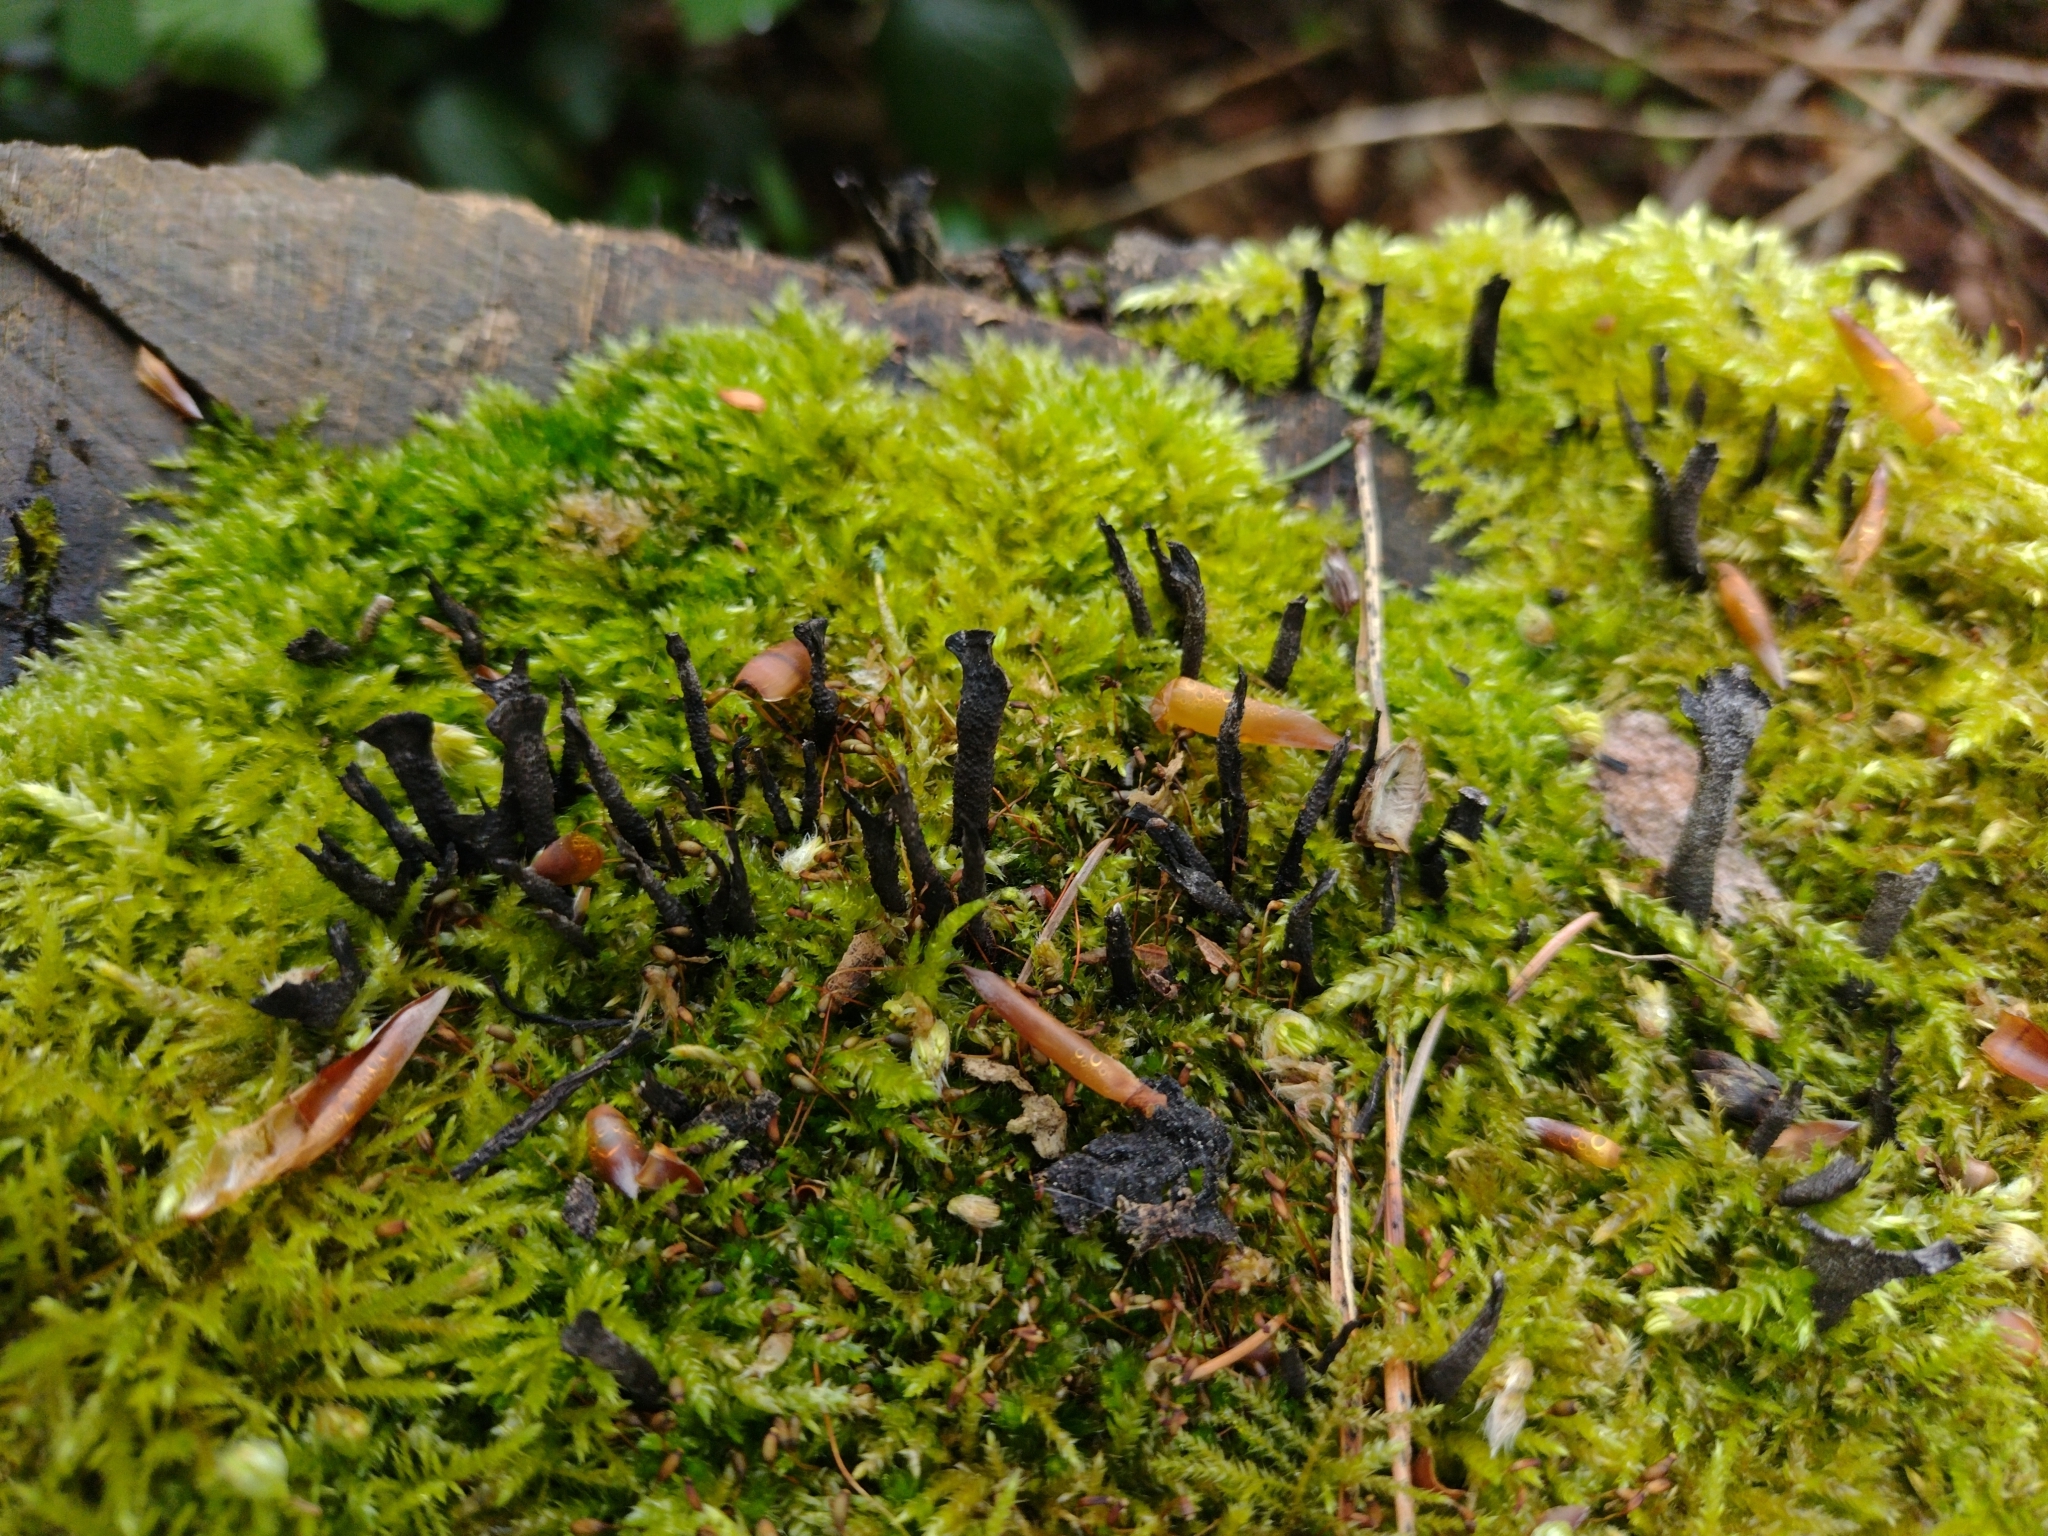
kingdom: Fungi
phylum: Ascomycota
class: Sordariomycetes
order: Xylariales
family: Xylariaceae
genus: Xylaria
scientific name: Xylaria hypoxylon
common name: Candle-snuff fungus
